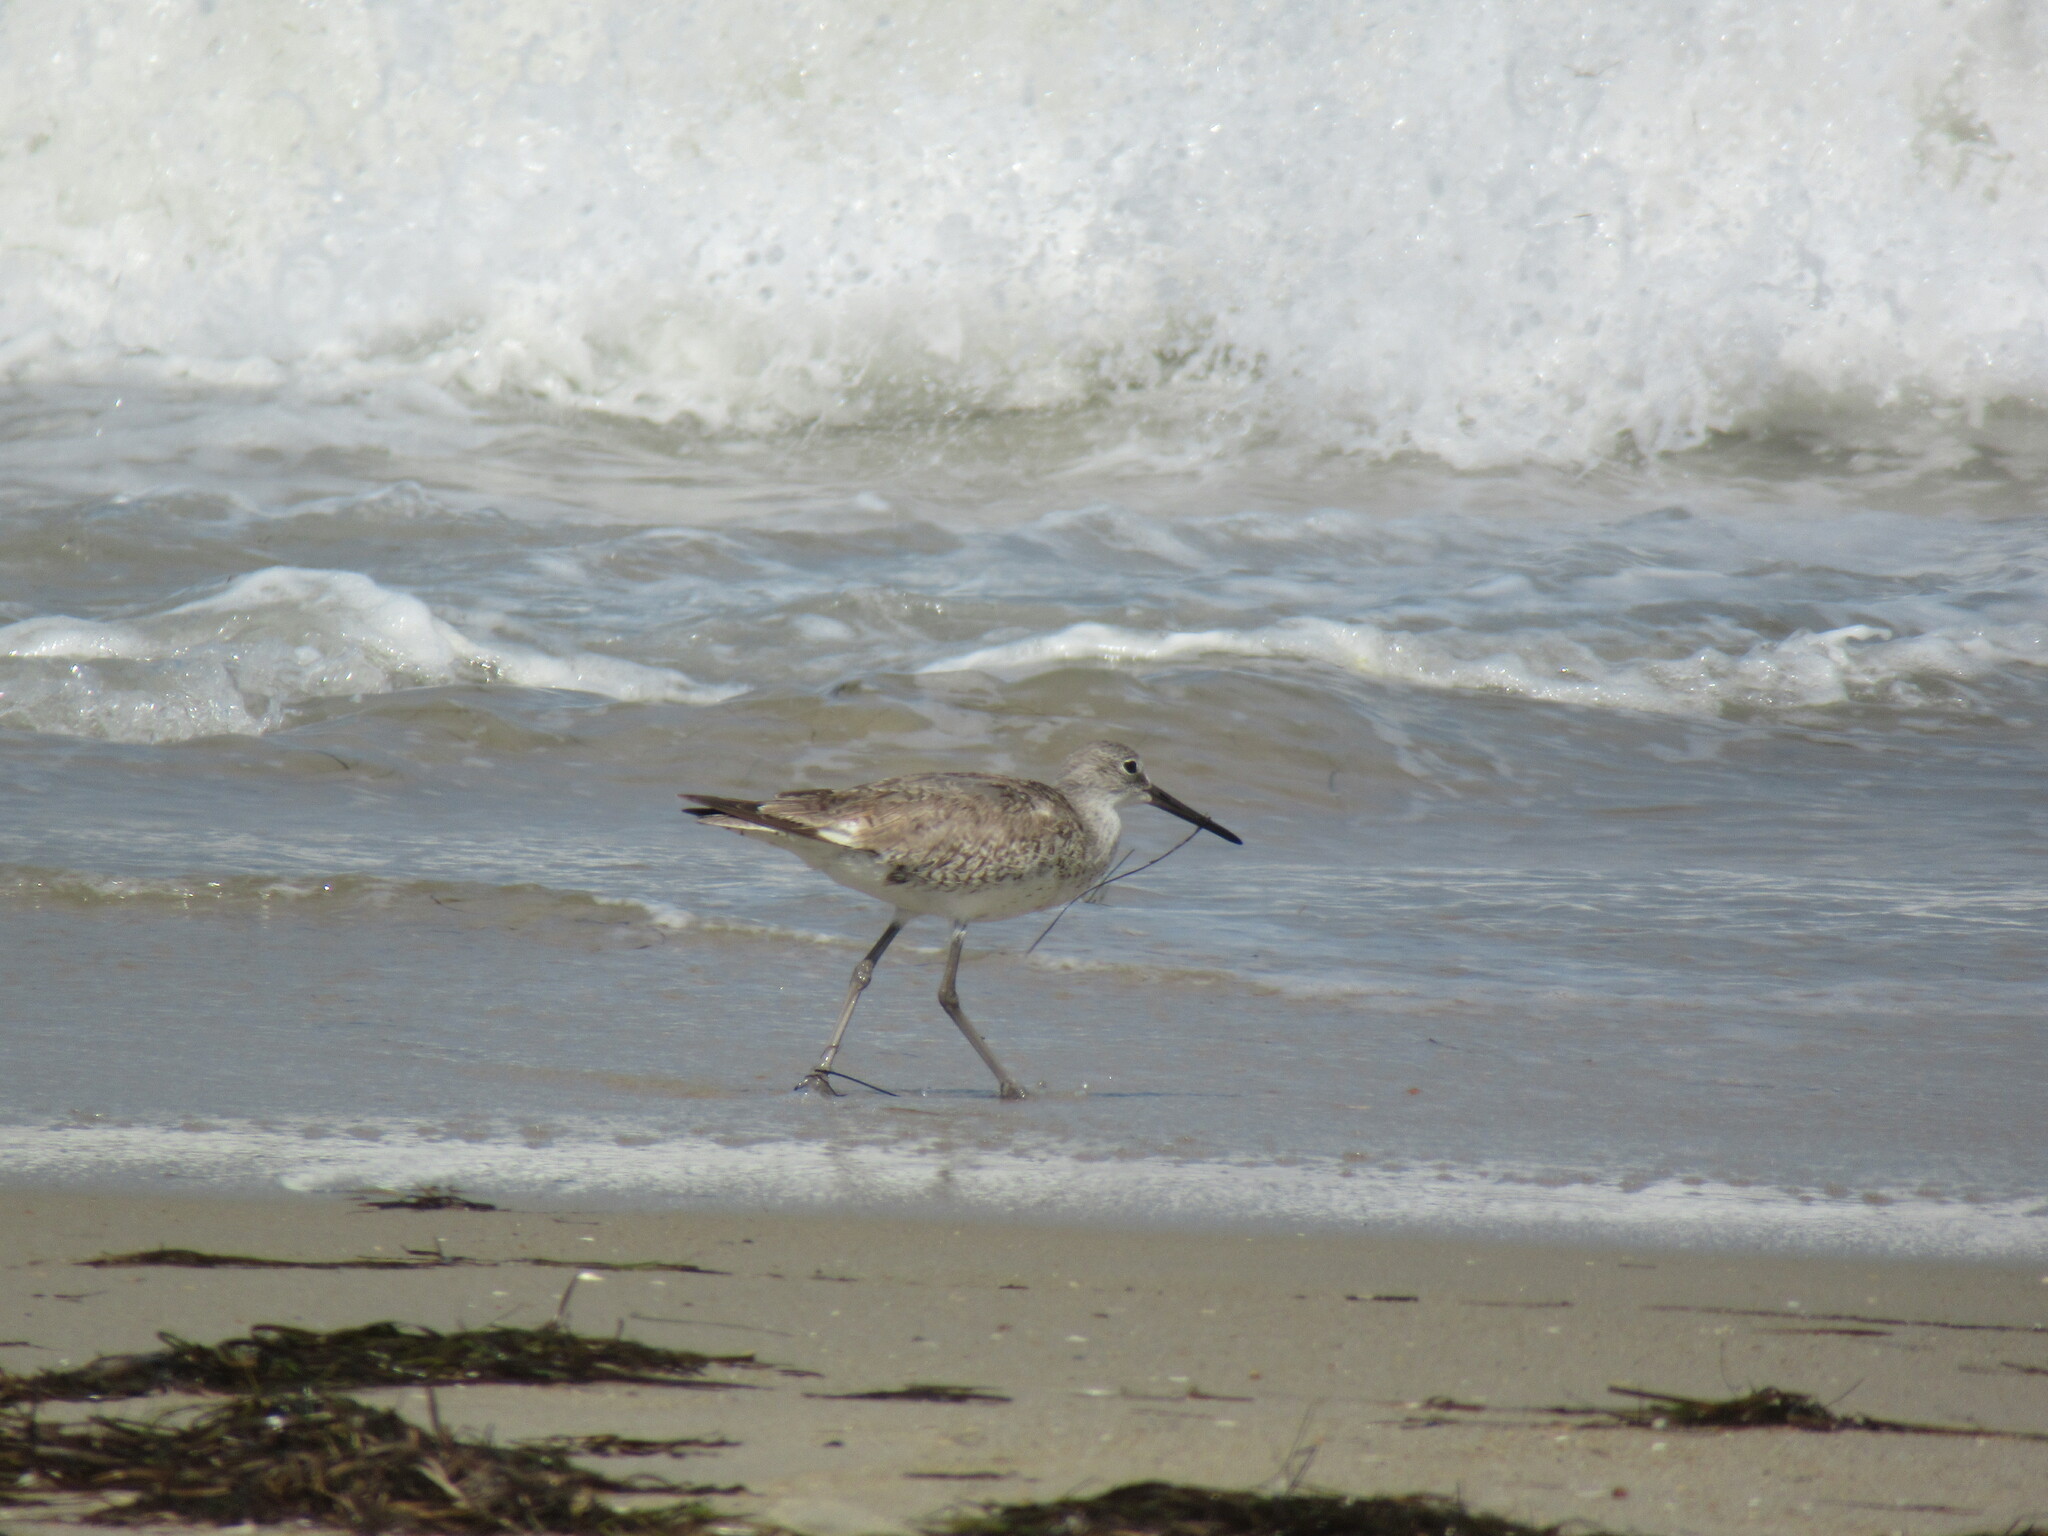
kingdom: Animalia
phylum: Chordata
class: Aves
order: Charadriiformes
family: Scolopacidae
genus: Tringa
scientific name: Tringa semipalmata
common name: Willet
